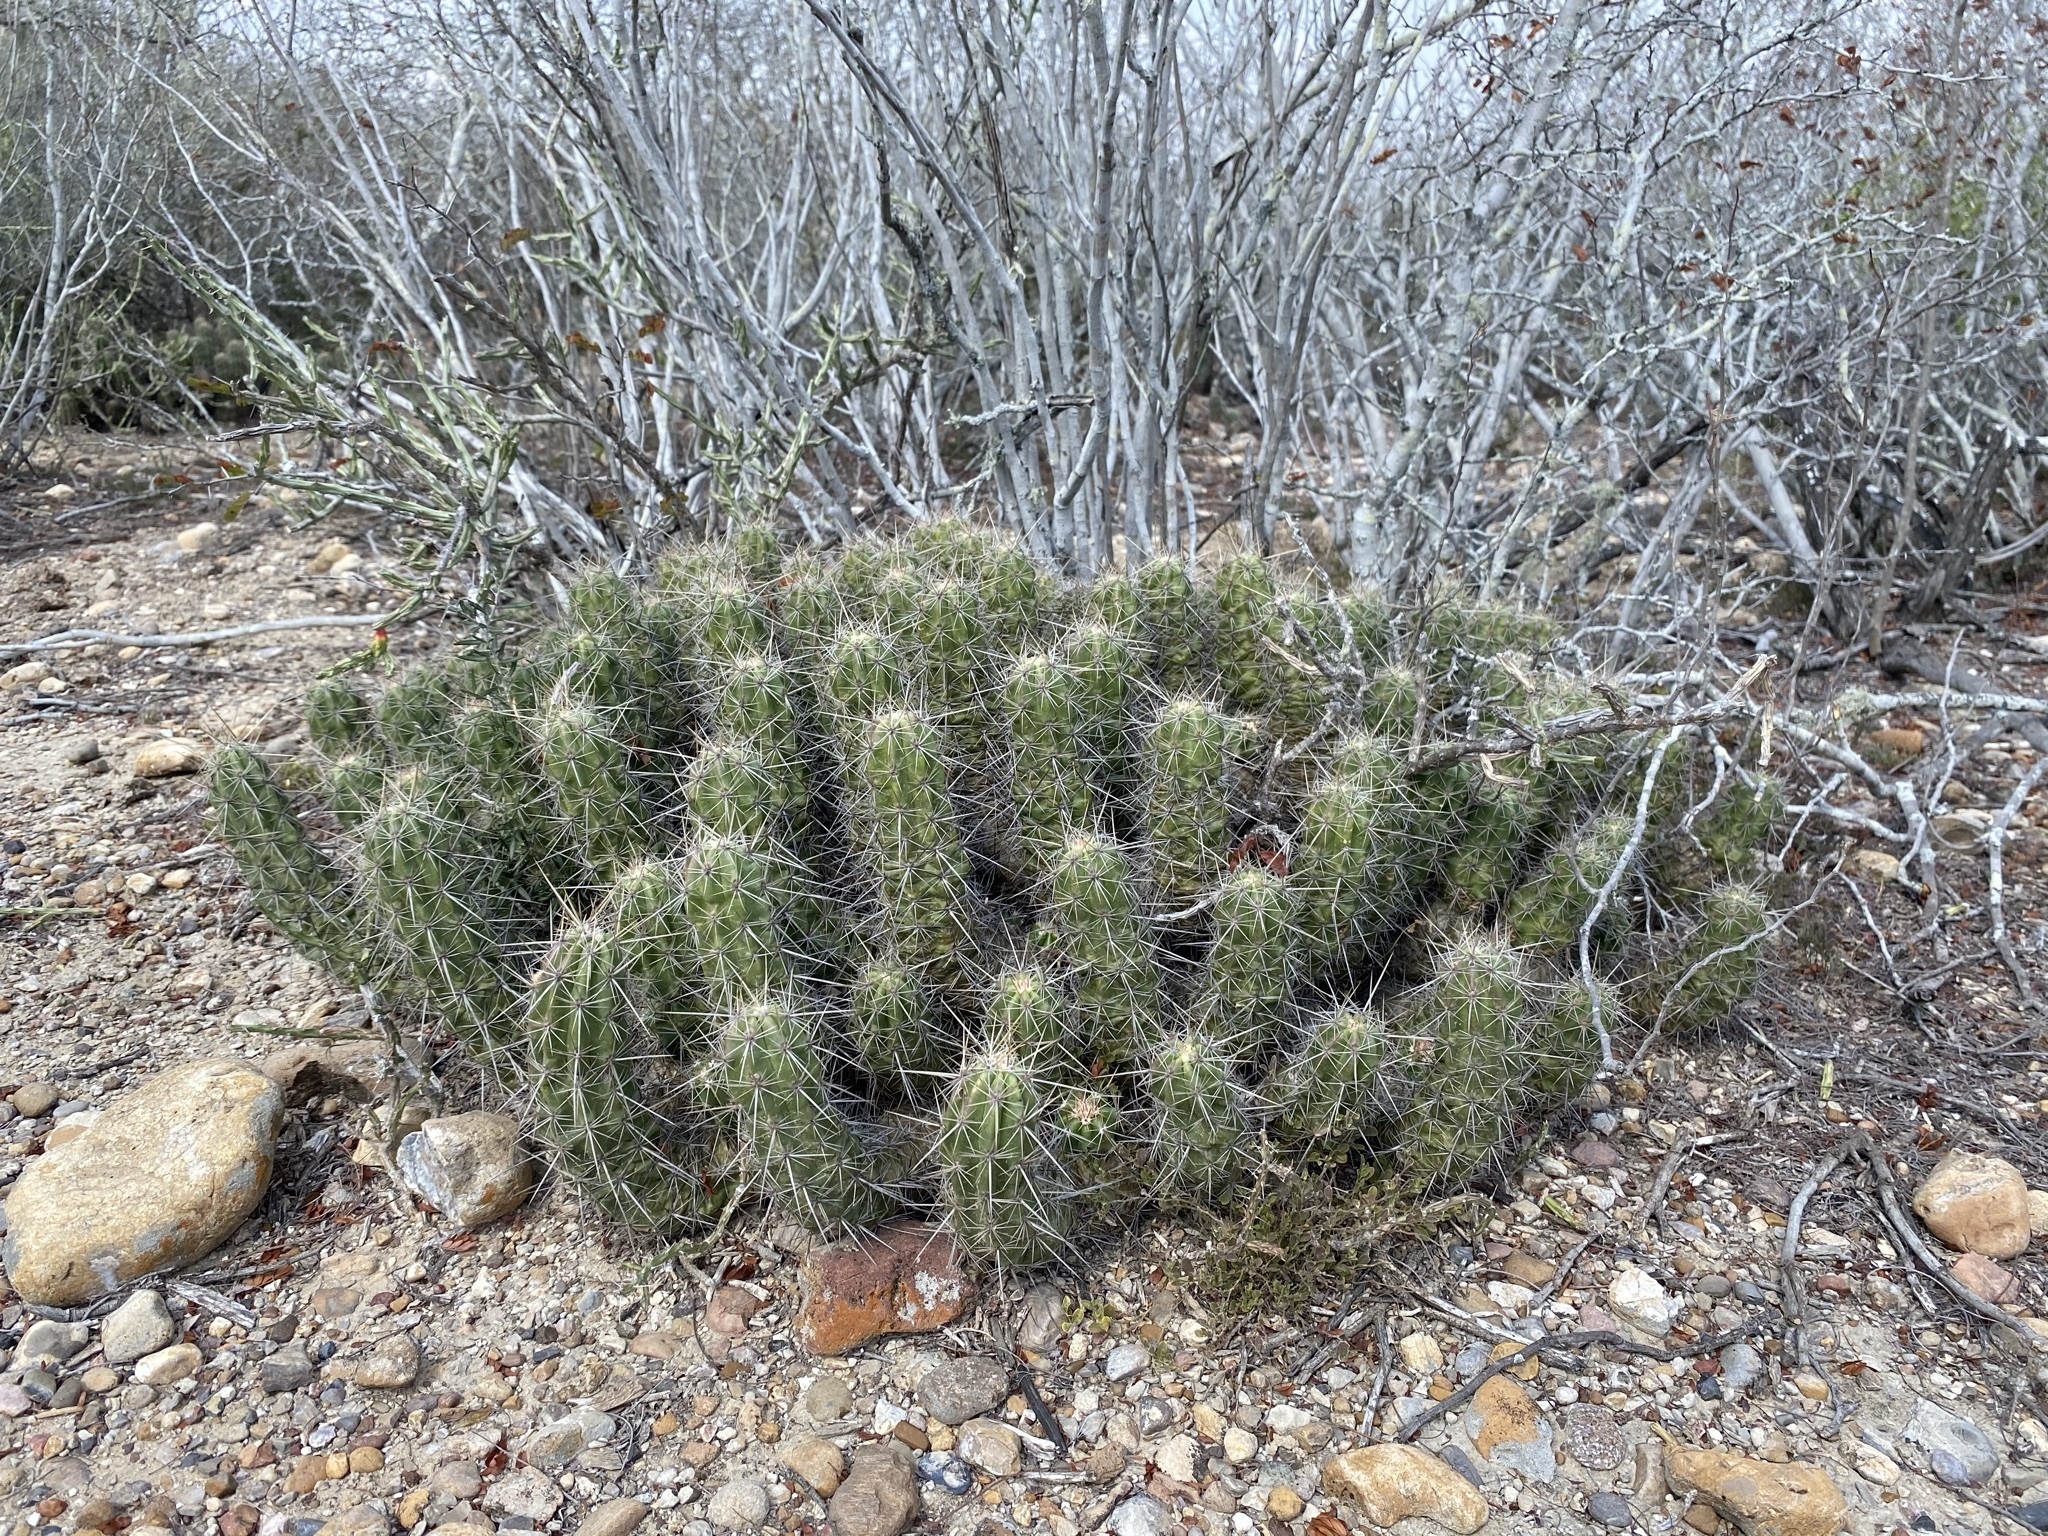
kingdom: Plantae
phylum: Tracheophyta
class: Magnoliopsida
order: Caryophyllales
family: Cactaceae
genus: Echinocereus
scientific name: Echinocereus enneacanthus
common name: Pitaya
